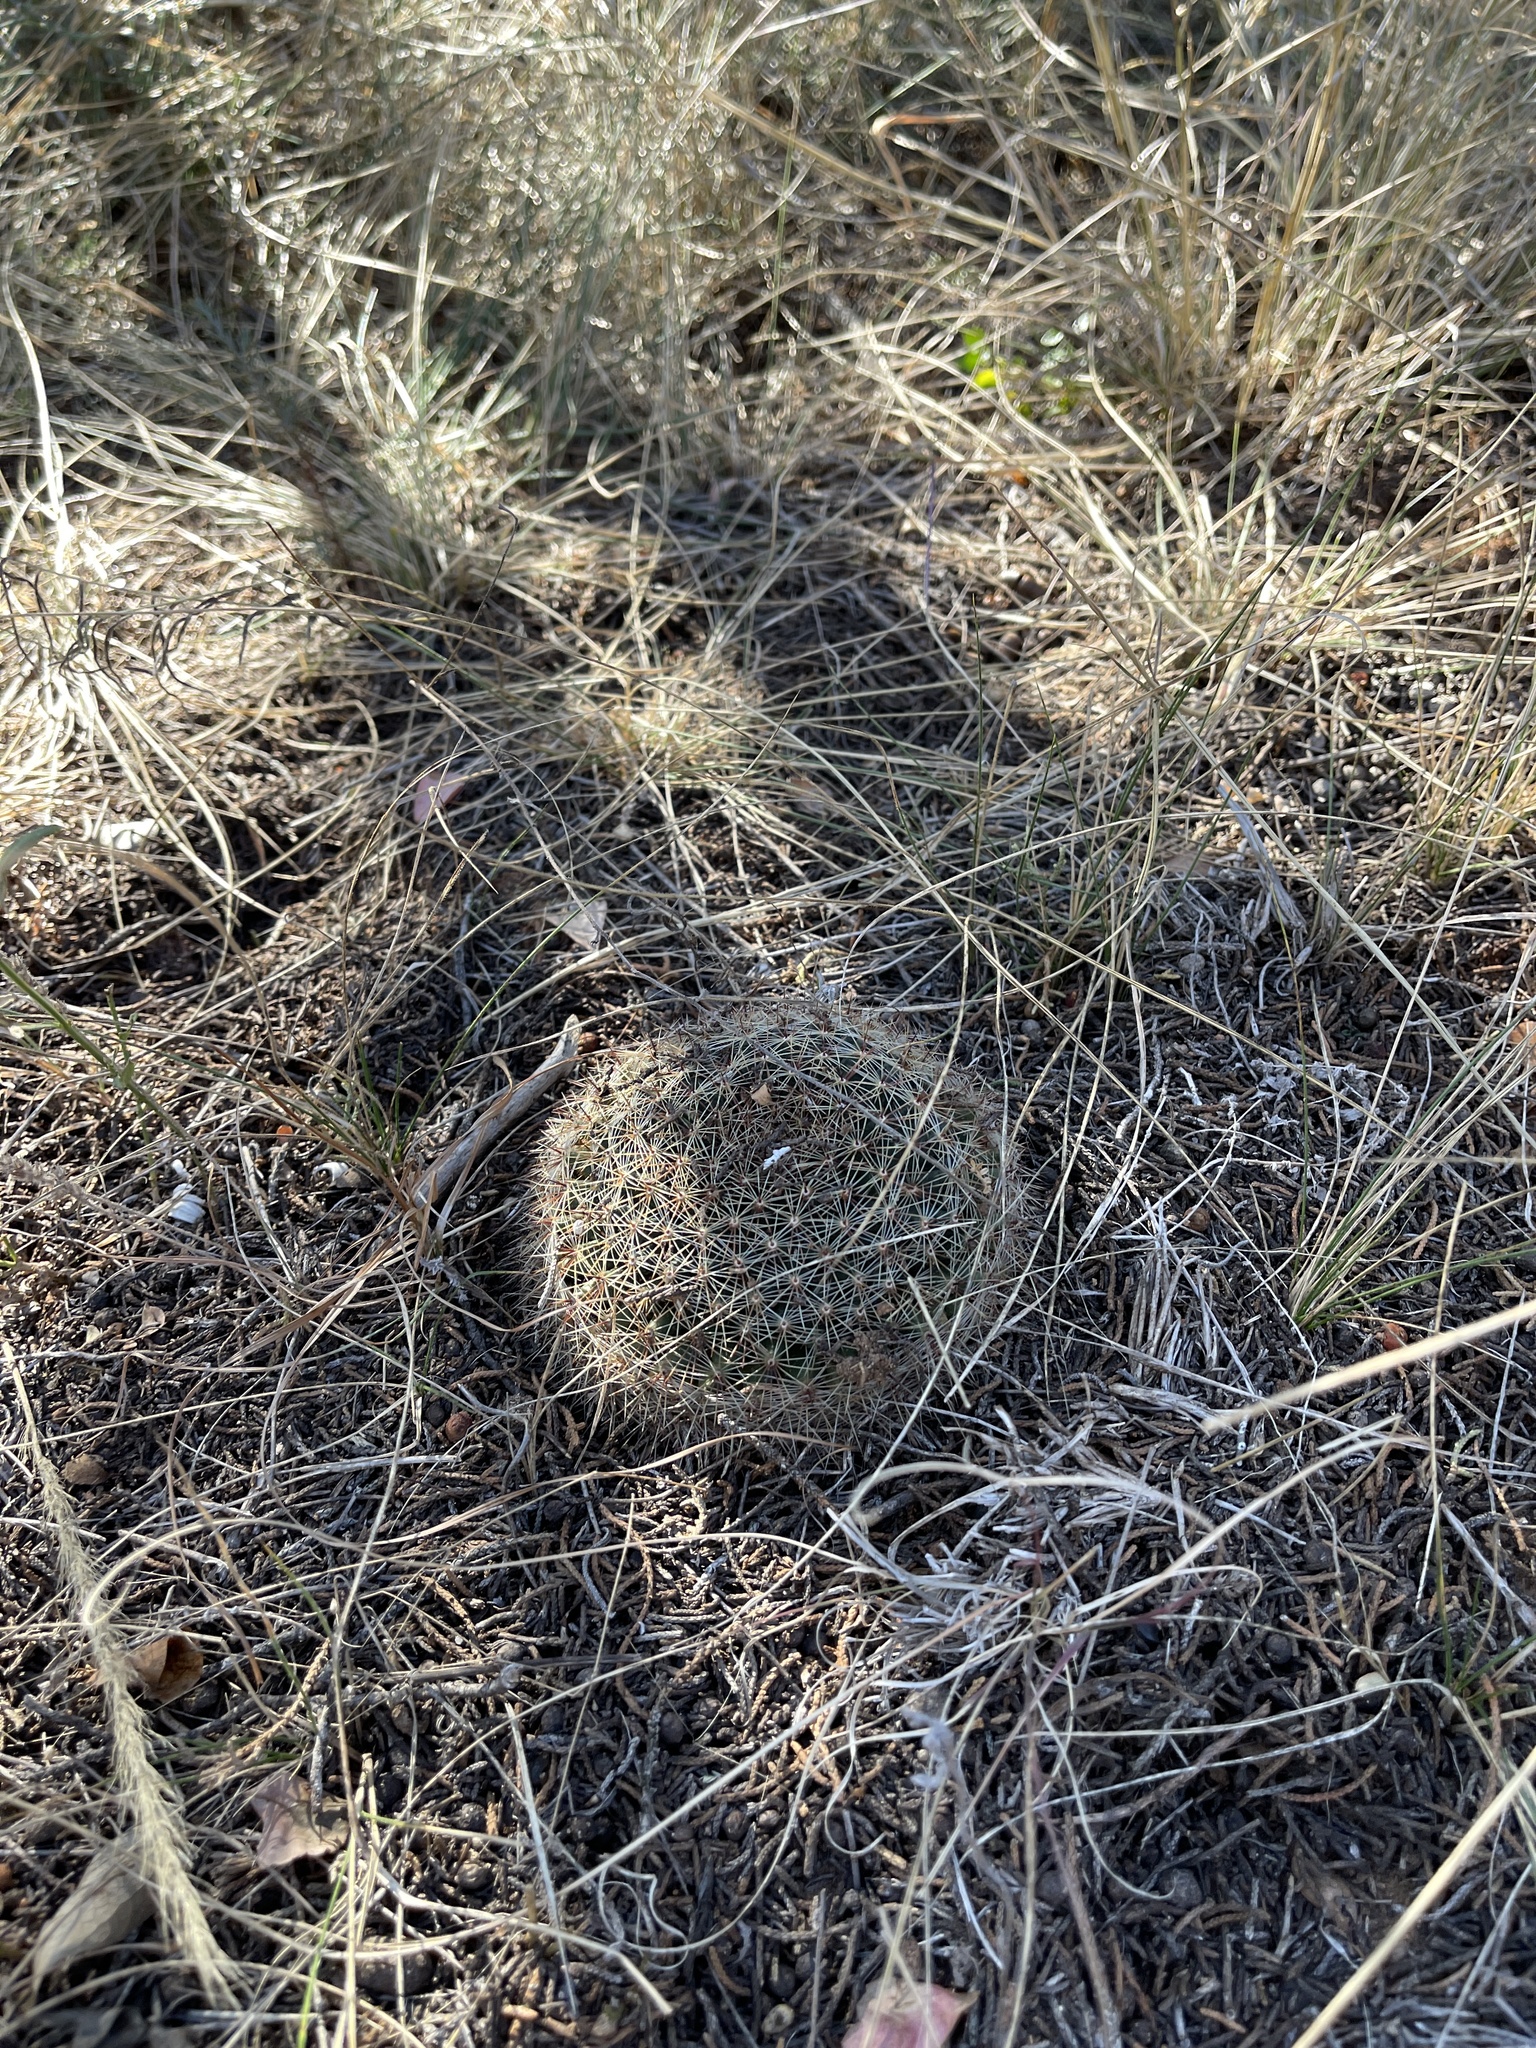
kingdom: Plantae
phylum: Tracheophyta
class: Magnoliopsida
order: Caryophyllales
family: Cactaceae
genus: Mammillaria
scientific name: Mammillaria heyderi
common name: Little nipple cactus
